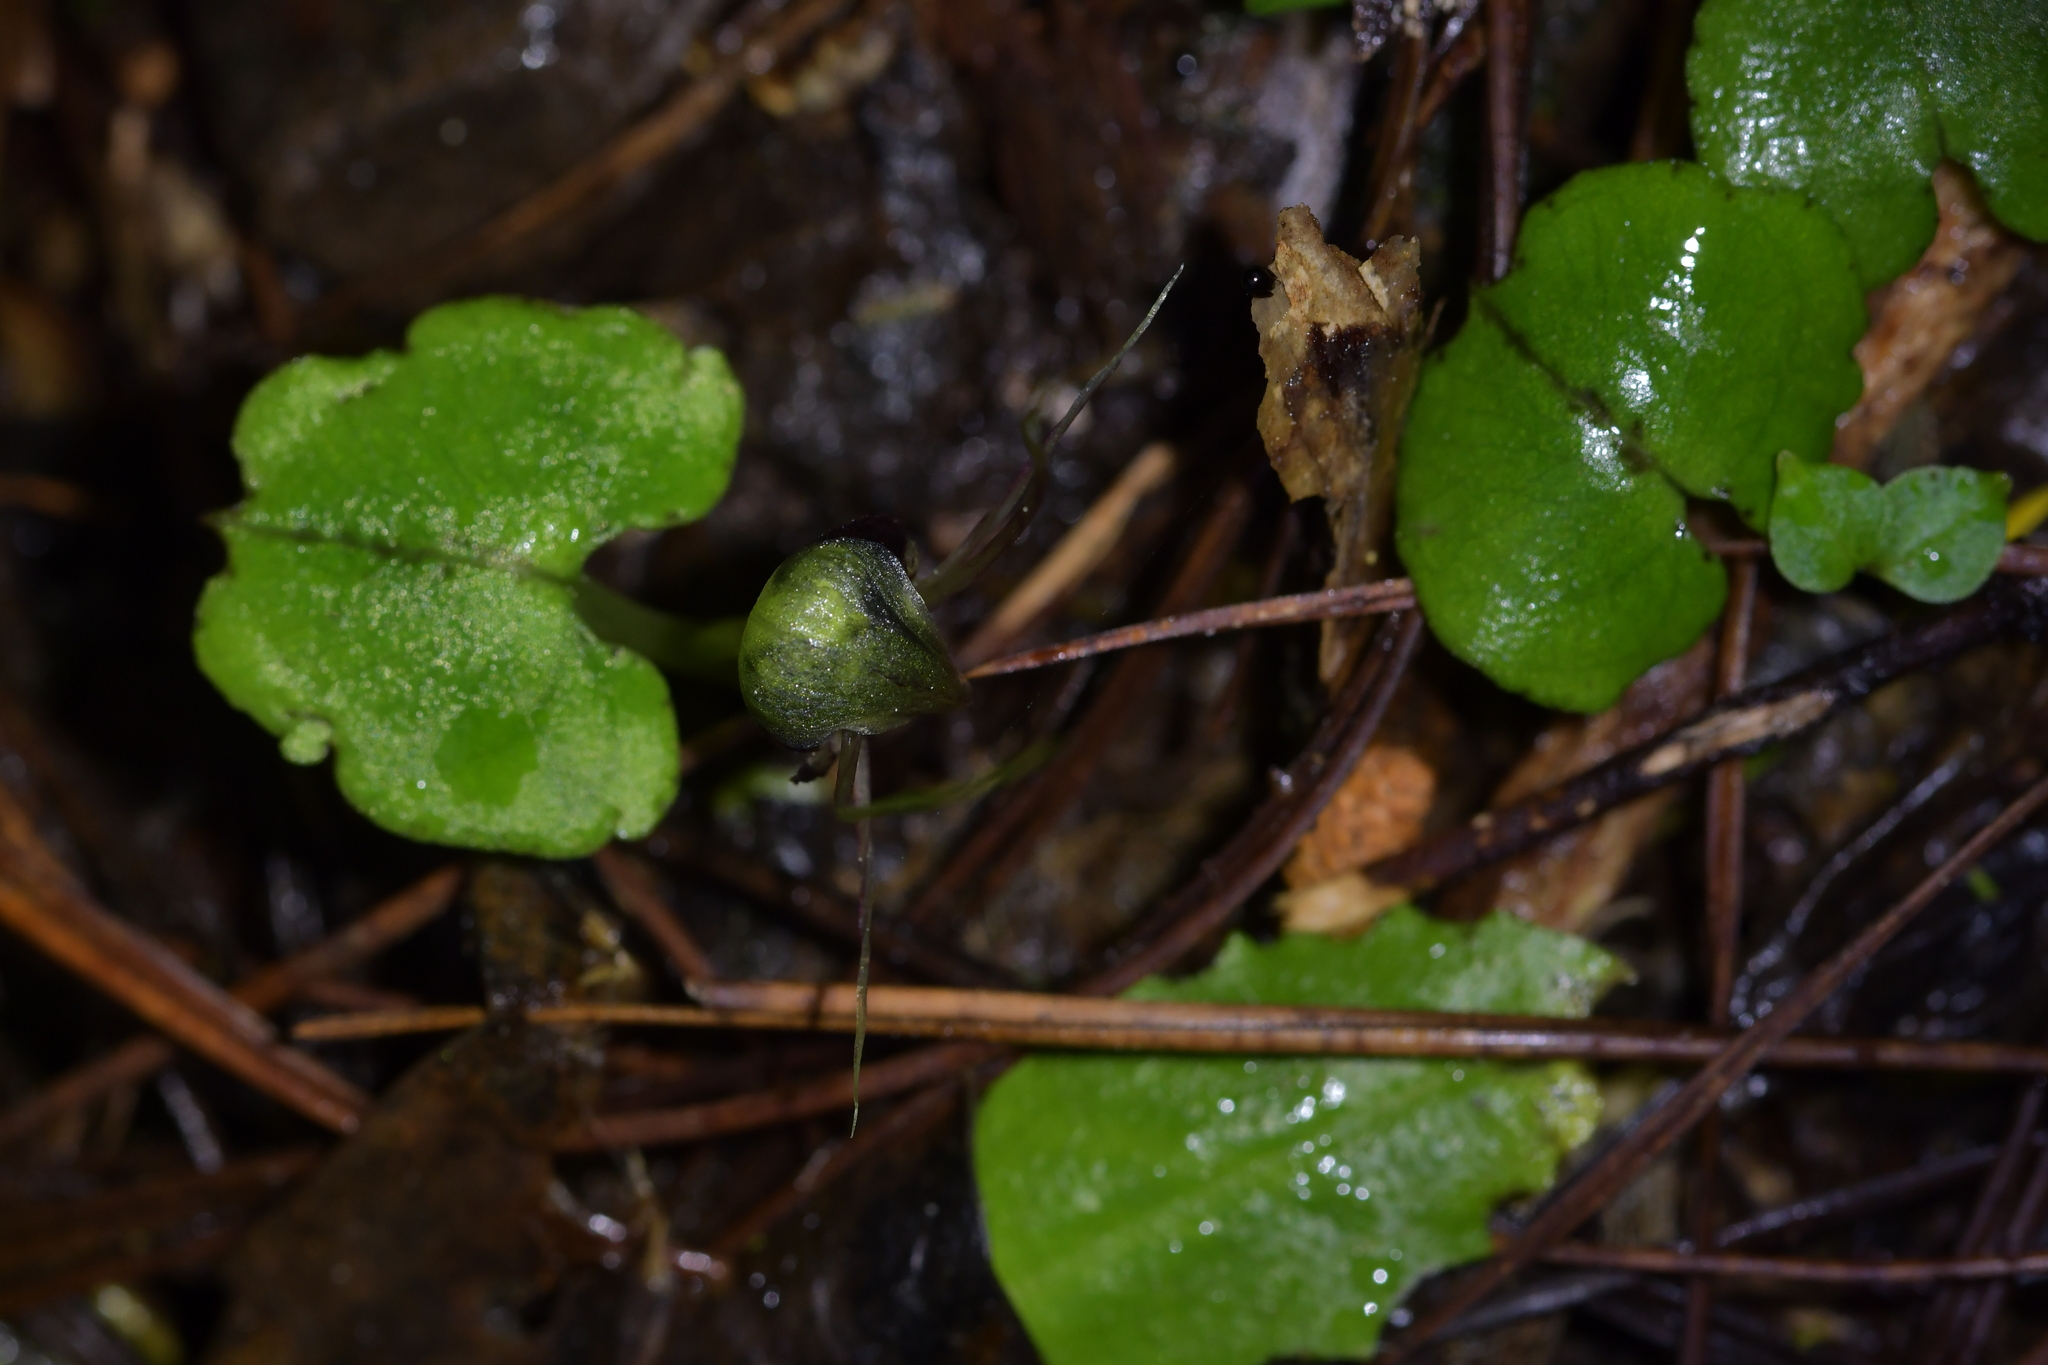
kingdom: Plantae
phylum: Tracheophyta
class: Liliopsida
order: Asparagales
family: Orchidaceae
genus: Corybas
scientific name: Corybas vitreus
